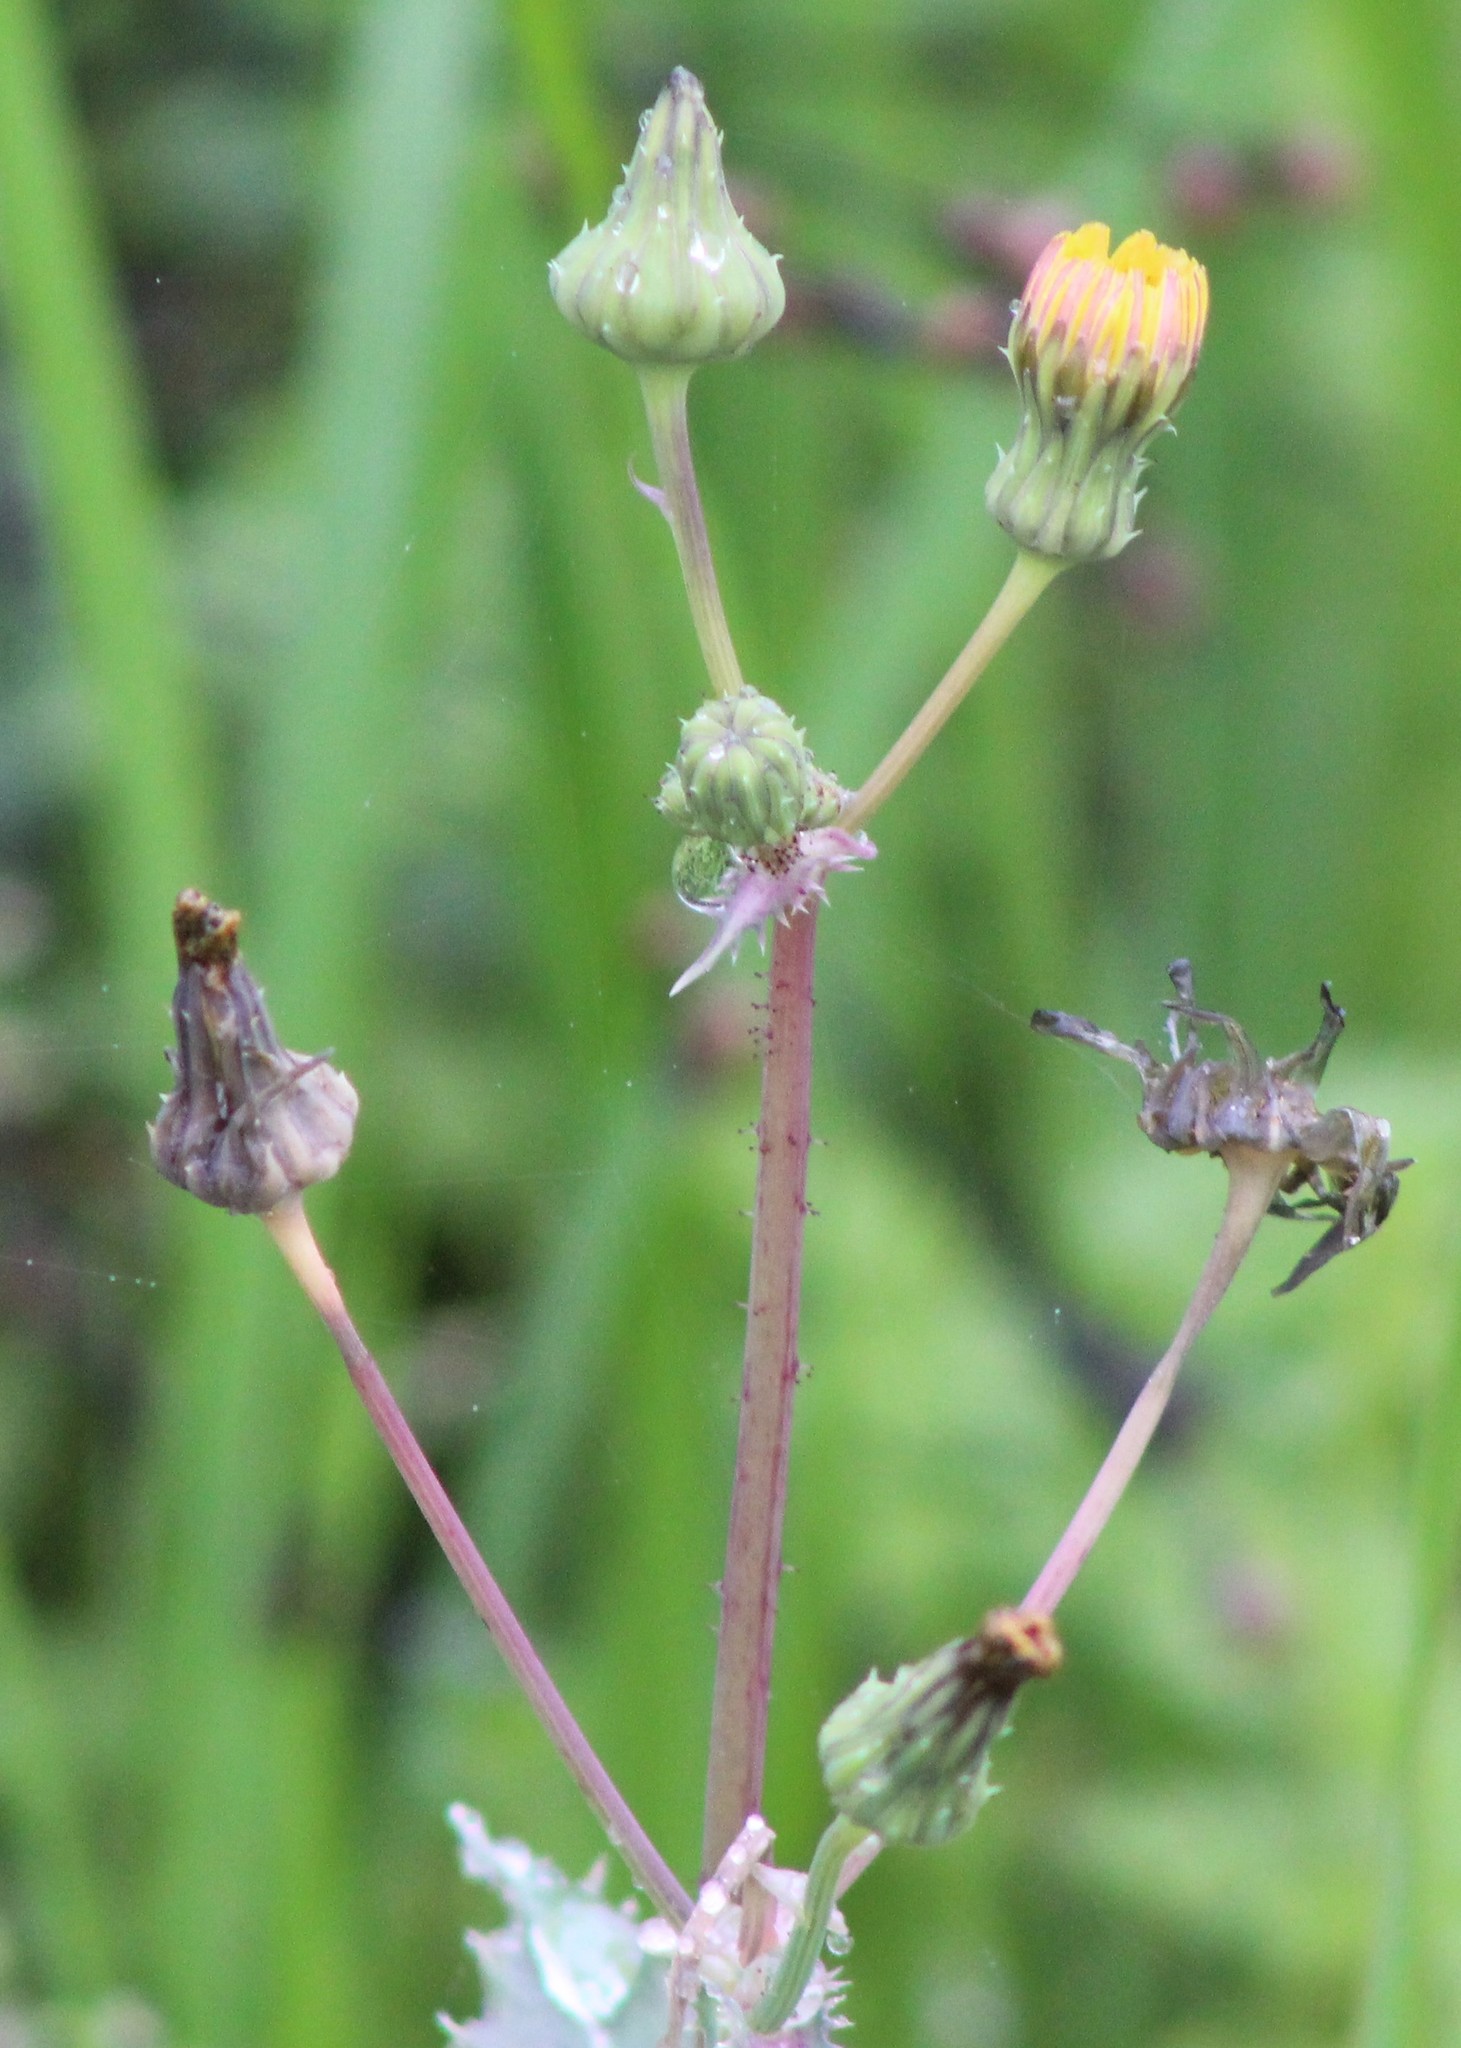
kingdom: Plantae
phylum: Tracheophyta
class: Magnoliopsida
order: Asterales
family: Asteraceae
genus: Sonchus
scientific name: Sonchus asper
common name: Prickly sow-thistle
